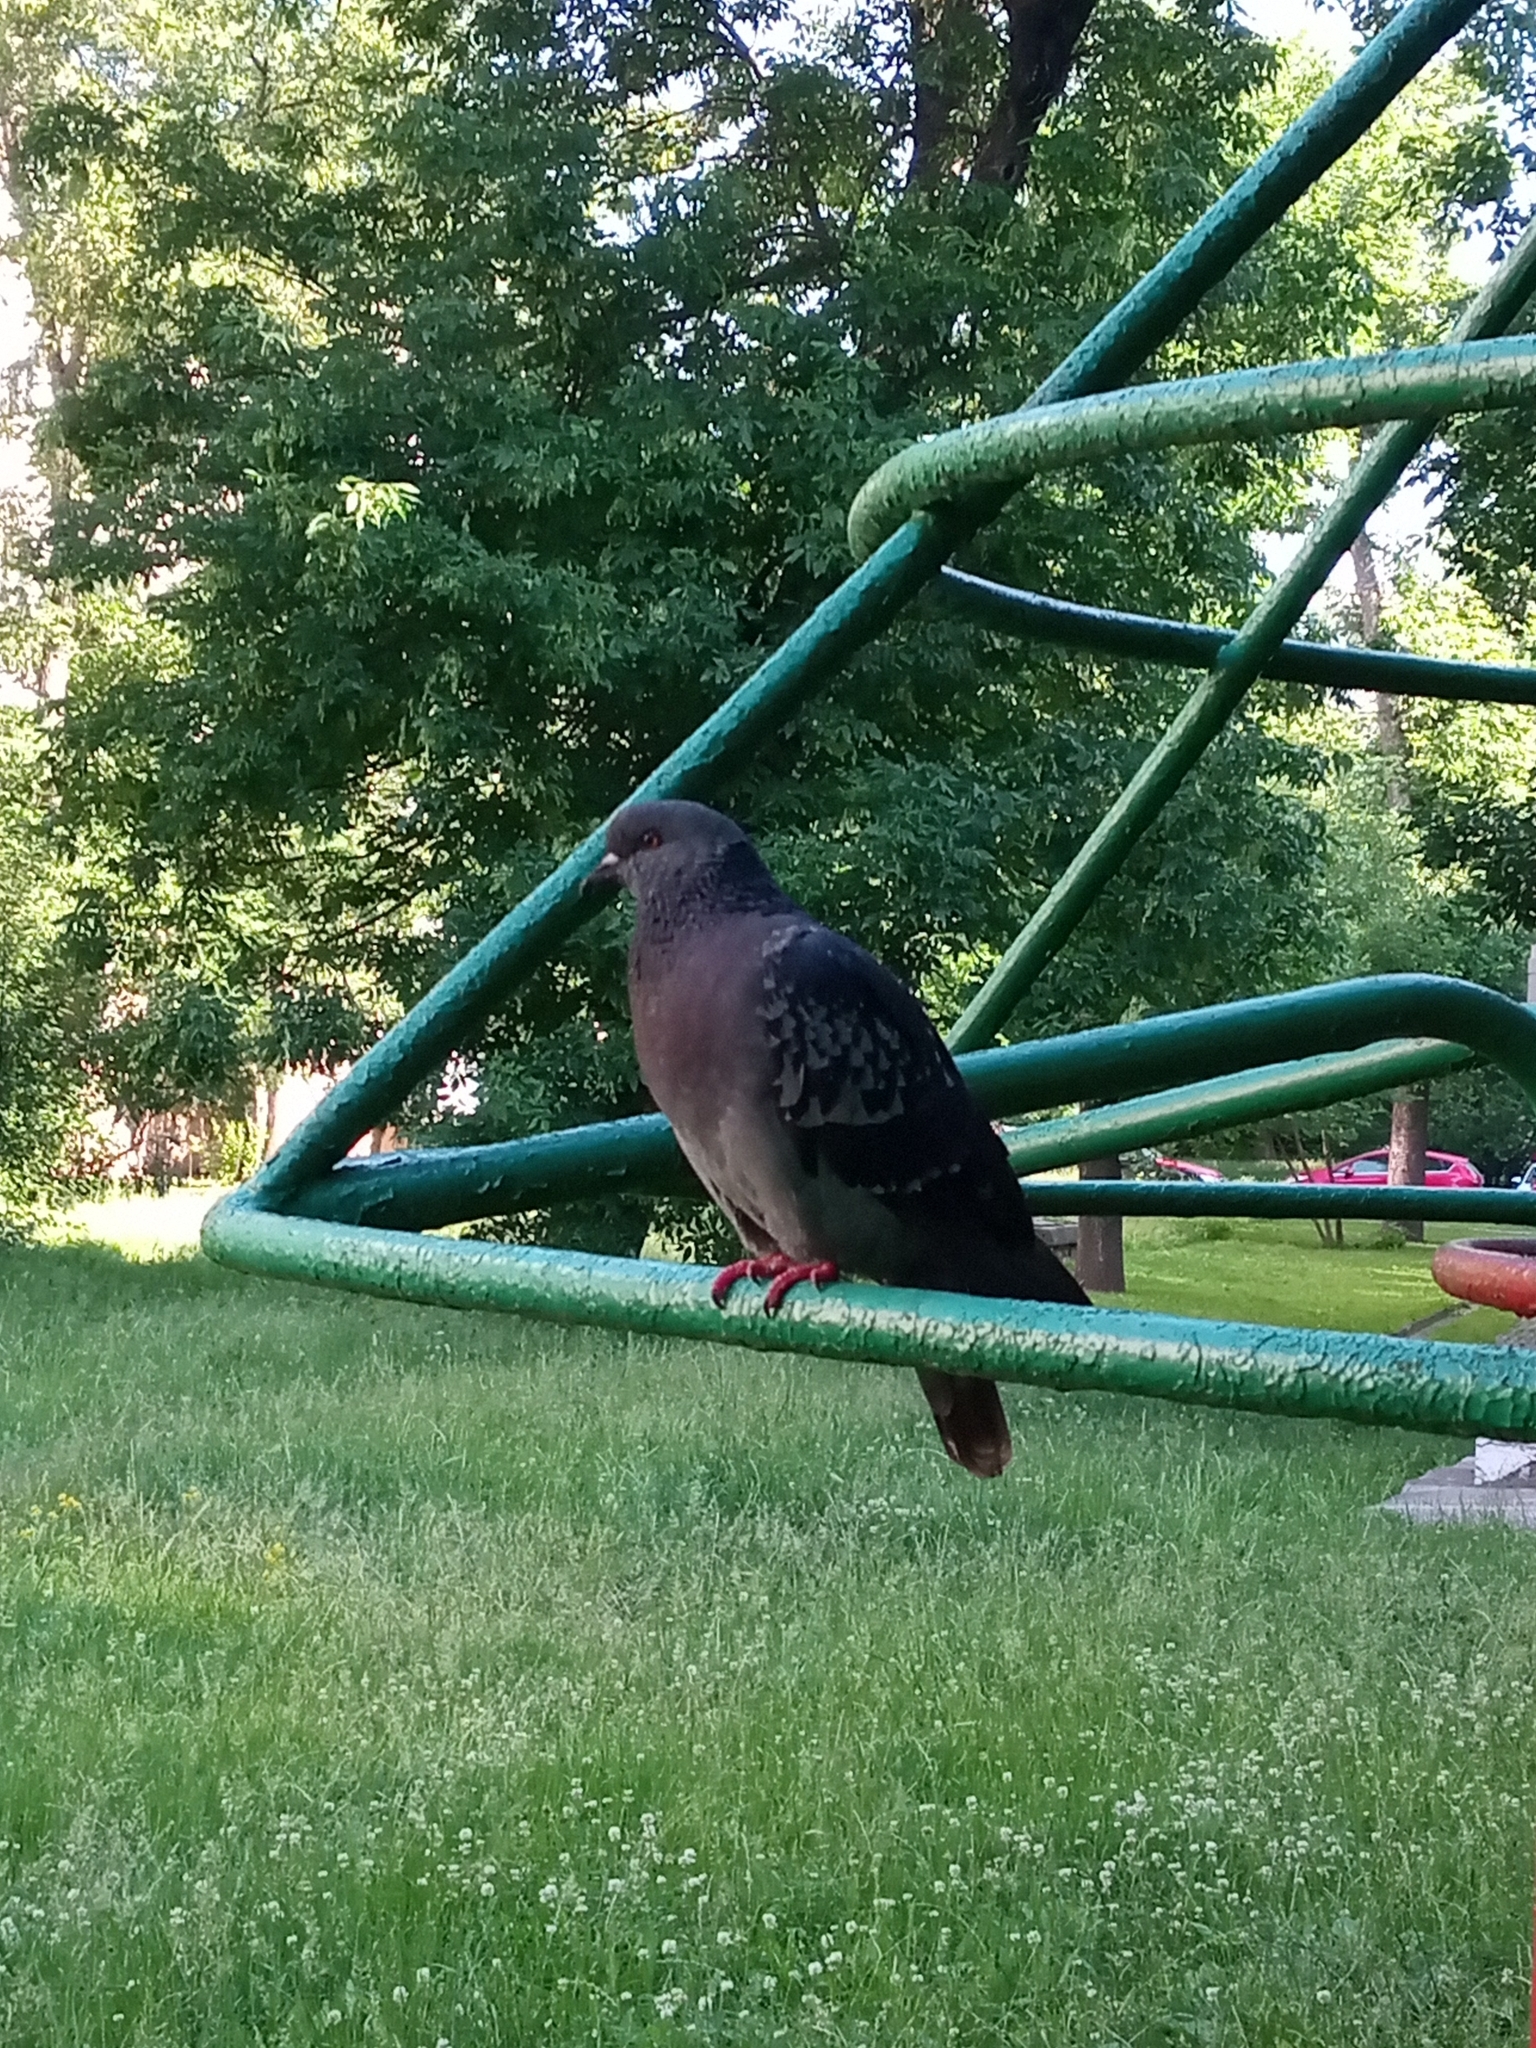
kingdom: Animalia
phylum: Chordata
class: Aves
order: Columbiformes
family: Columbidae
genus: Columba
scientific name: Columba livia
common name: Rock pigeon
